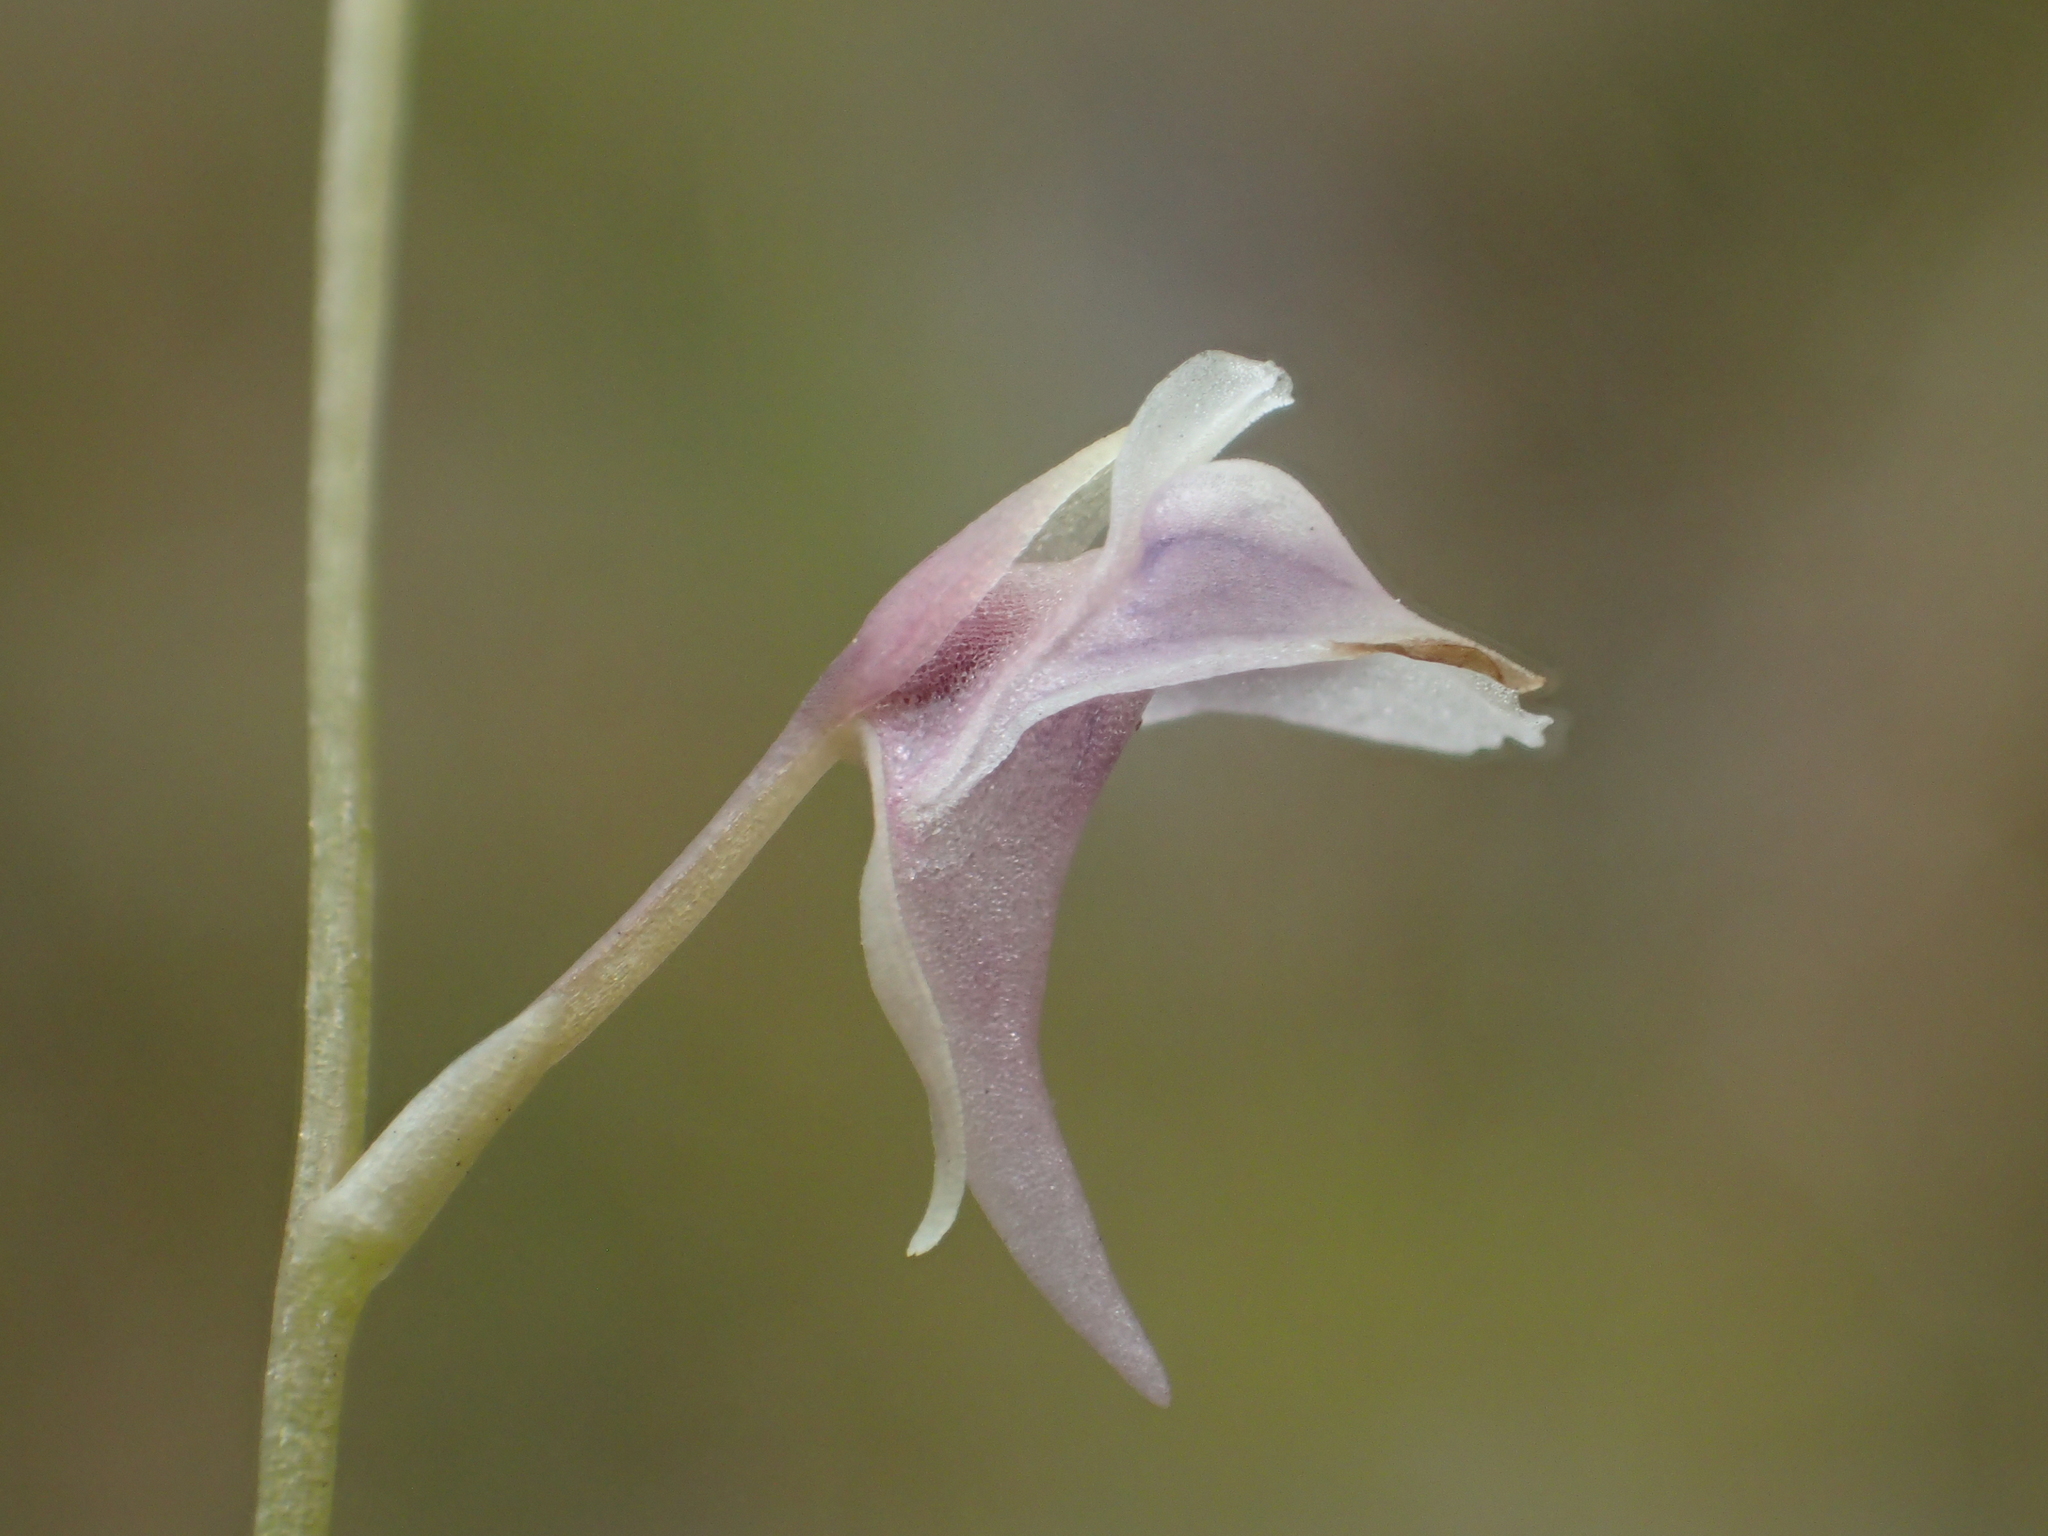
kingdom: Plantae
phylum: Tracheophyta
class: Magnoliopsida
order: Lamiales
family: Lentibulariaceae
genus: Utricularia
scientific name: Utricularia heterosepala
